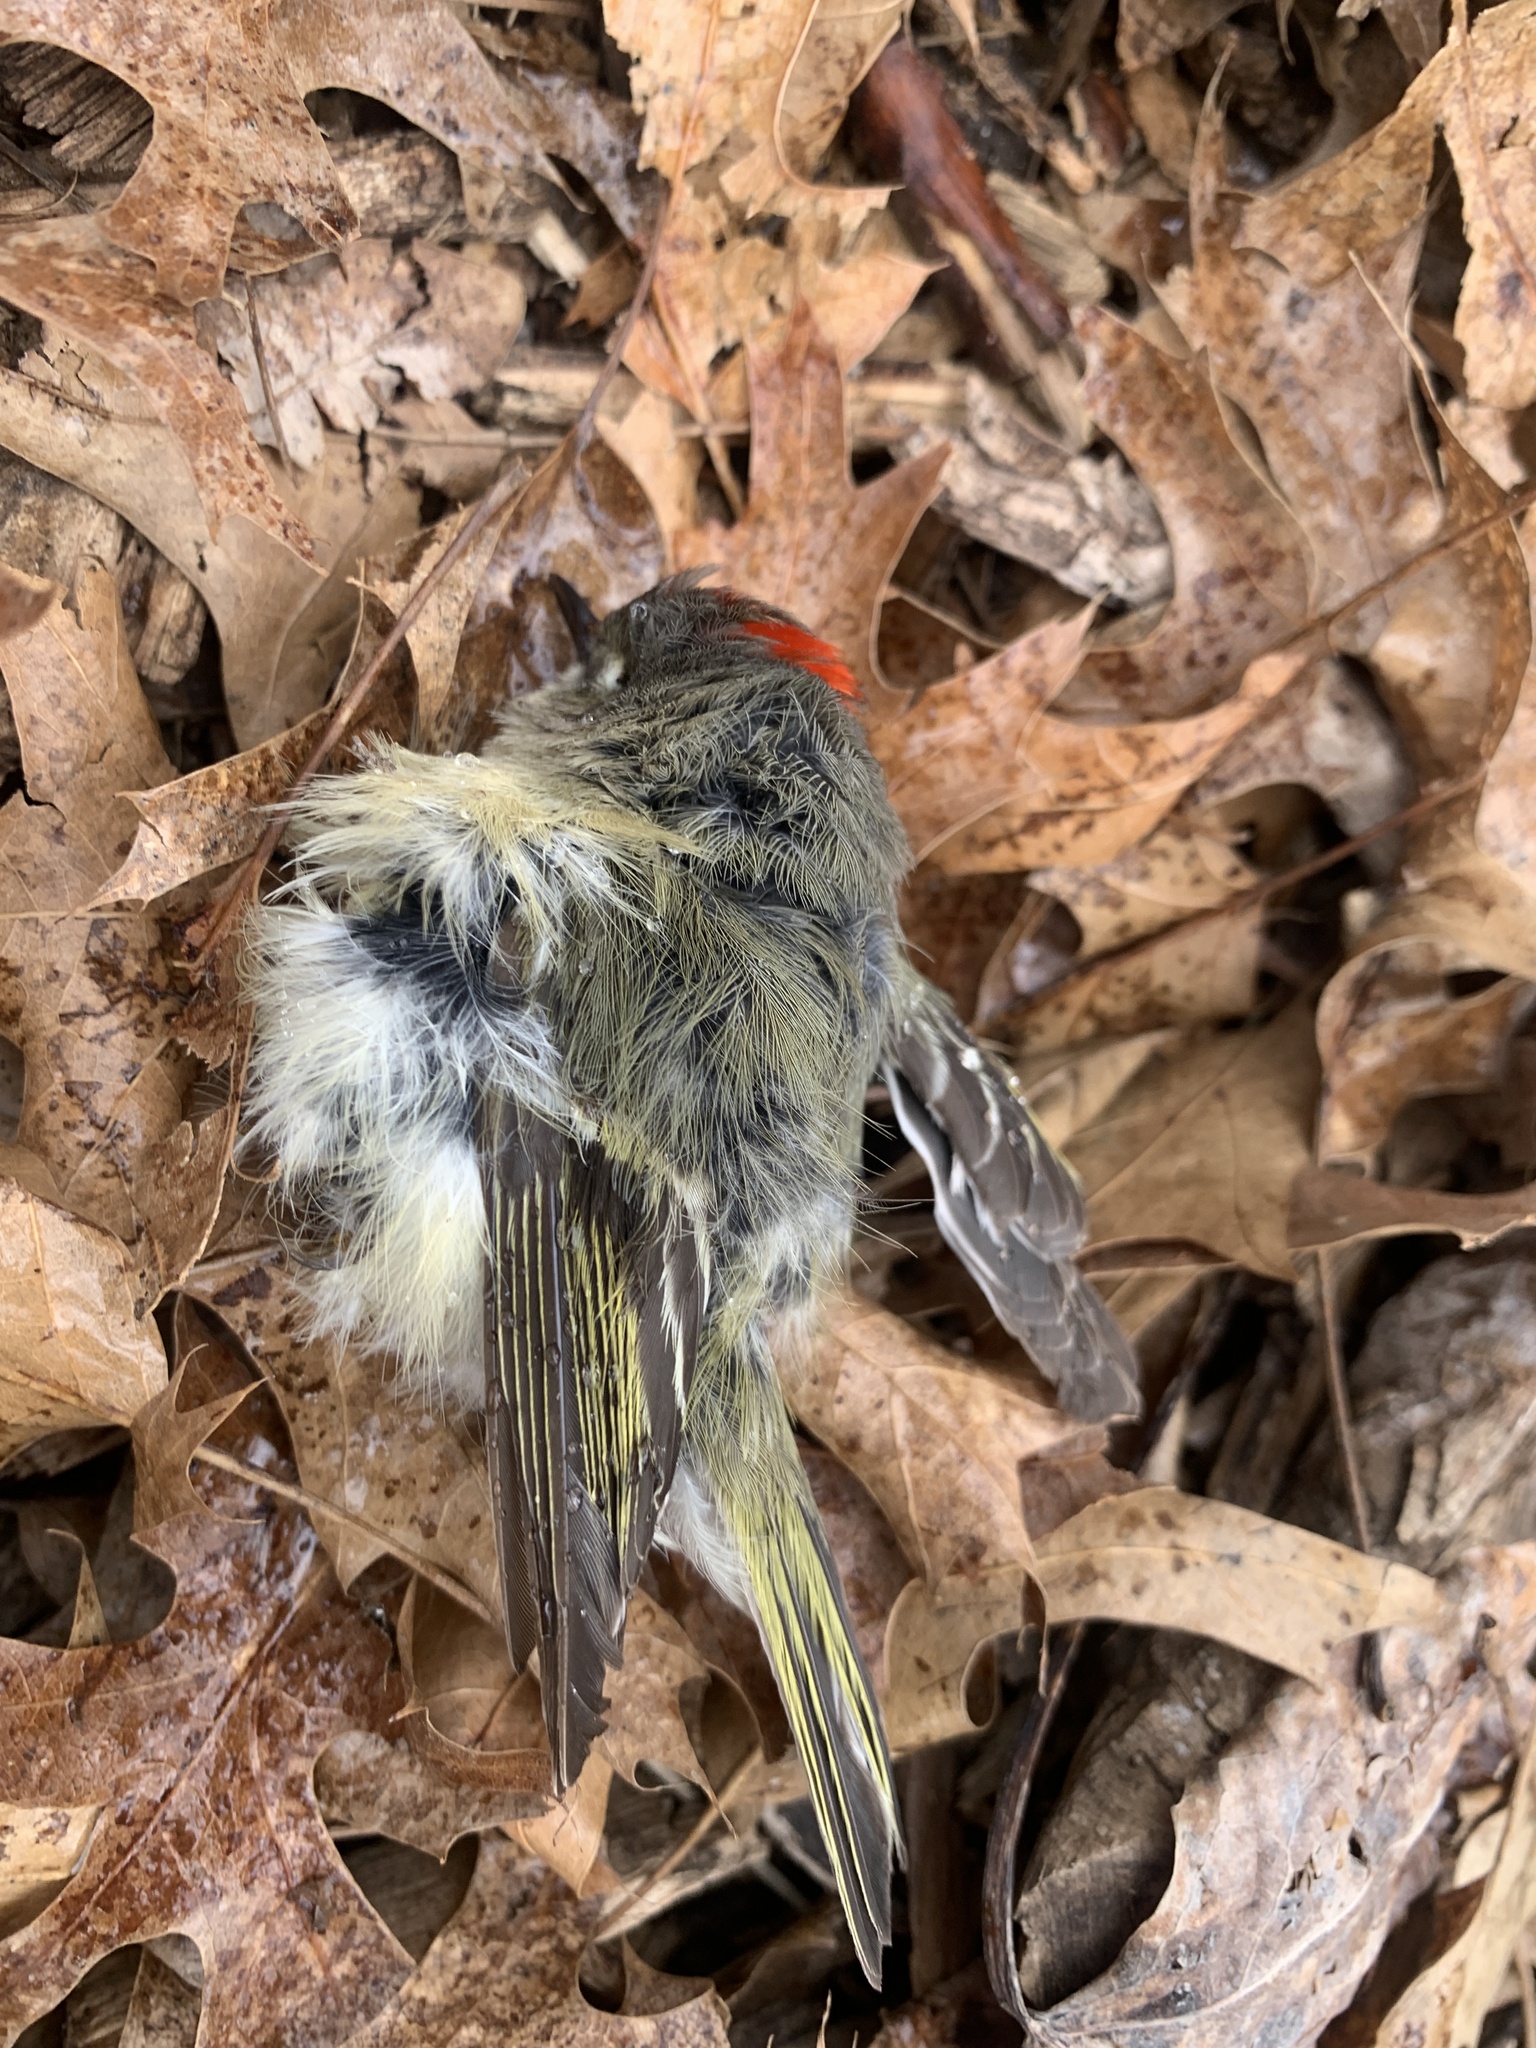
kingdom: Animalia
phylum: Chordata
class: Aves
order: Passeriformes
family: Regulidae
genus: Regulus
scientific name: Regulus calendula
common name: Ruby-crowned kinglet
